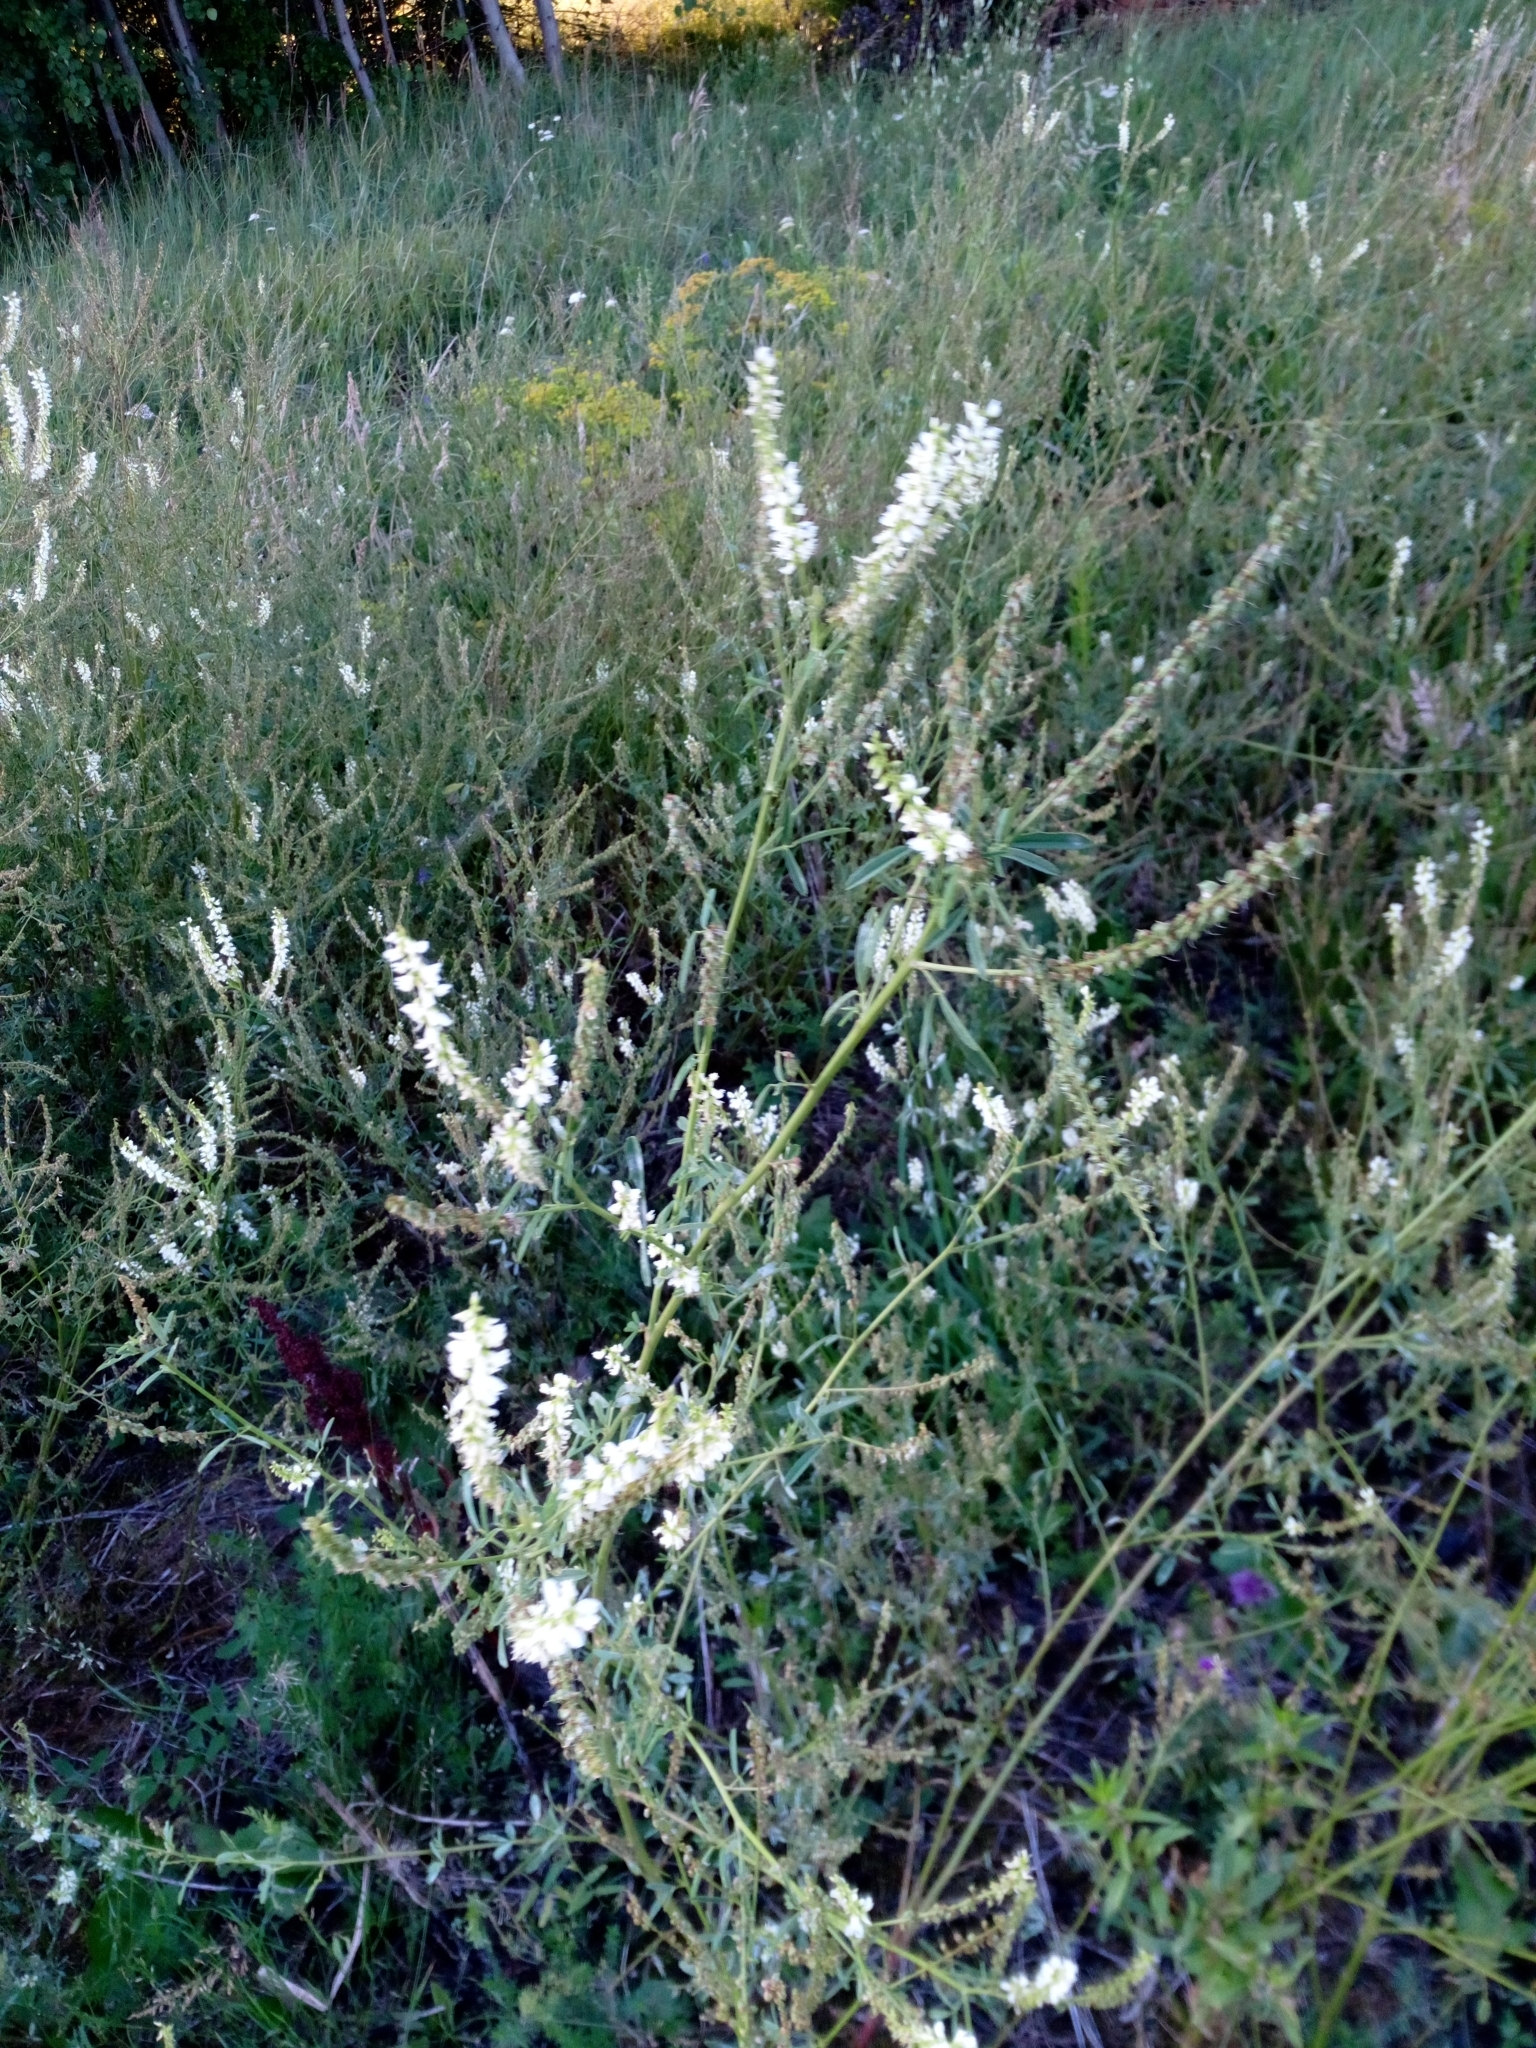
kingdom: Plantae
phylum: Tracheophyta
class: Magnoliopsida
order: Fabales
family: Fabaceae
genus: Melilotus
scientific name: Melilotus albus
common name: White melilot
